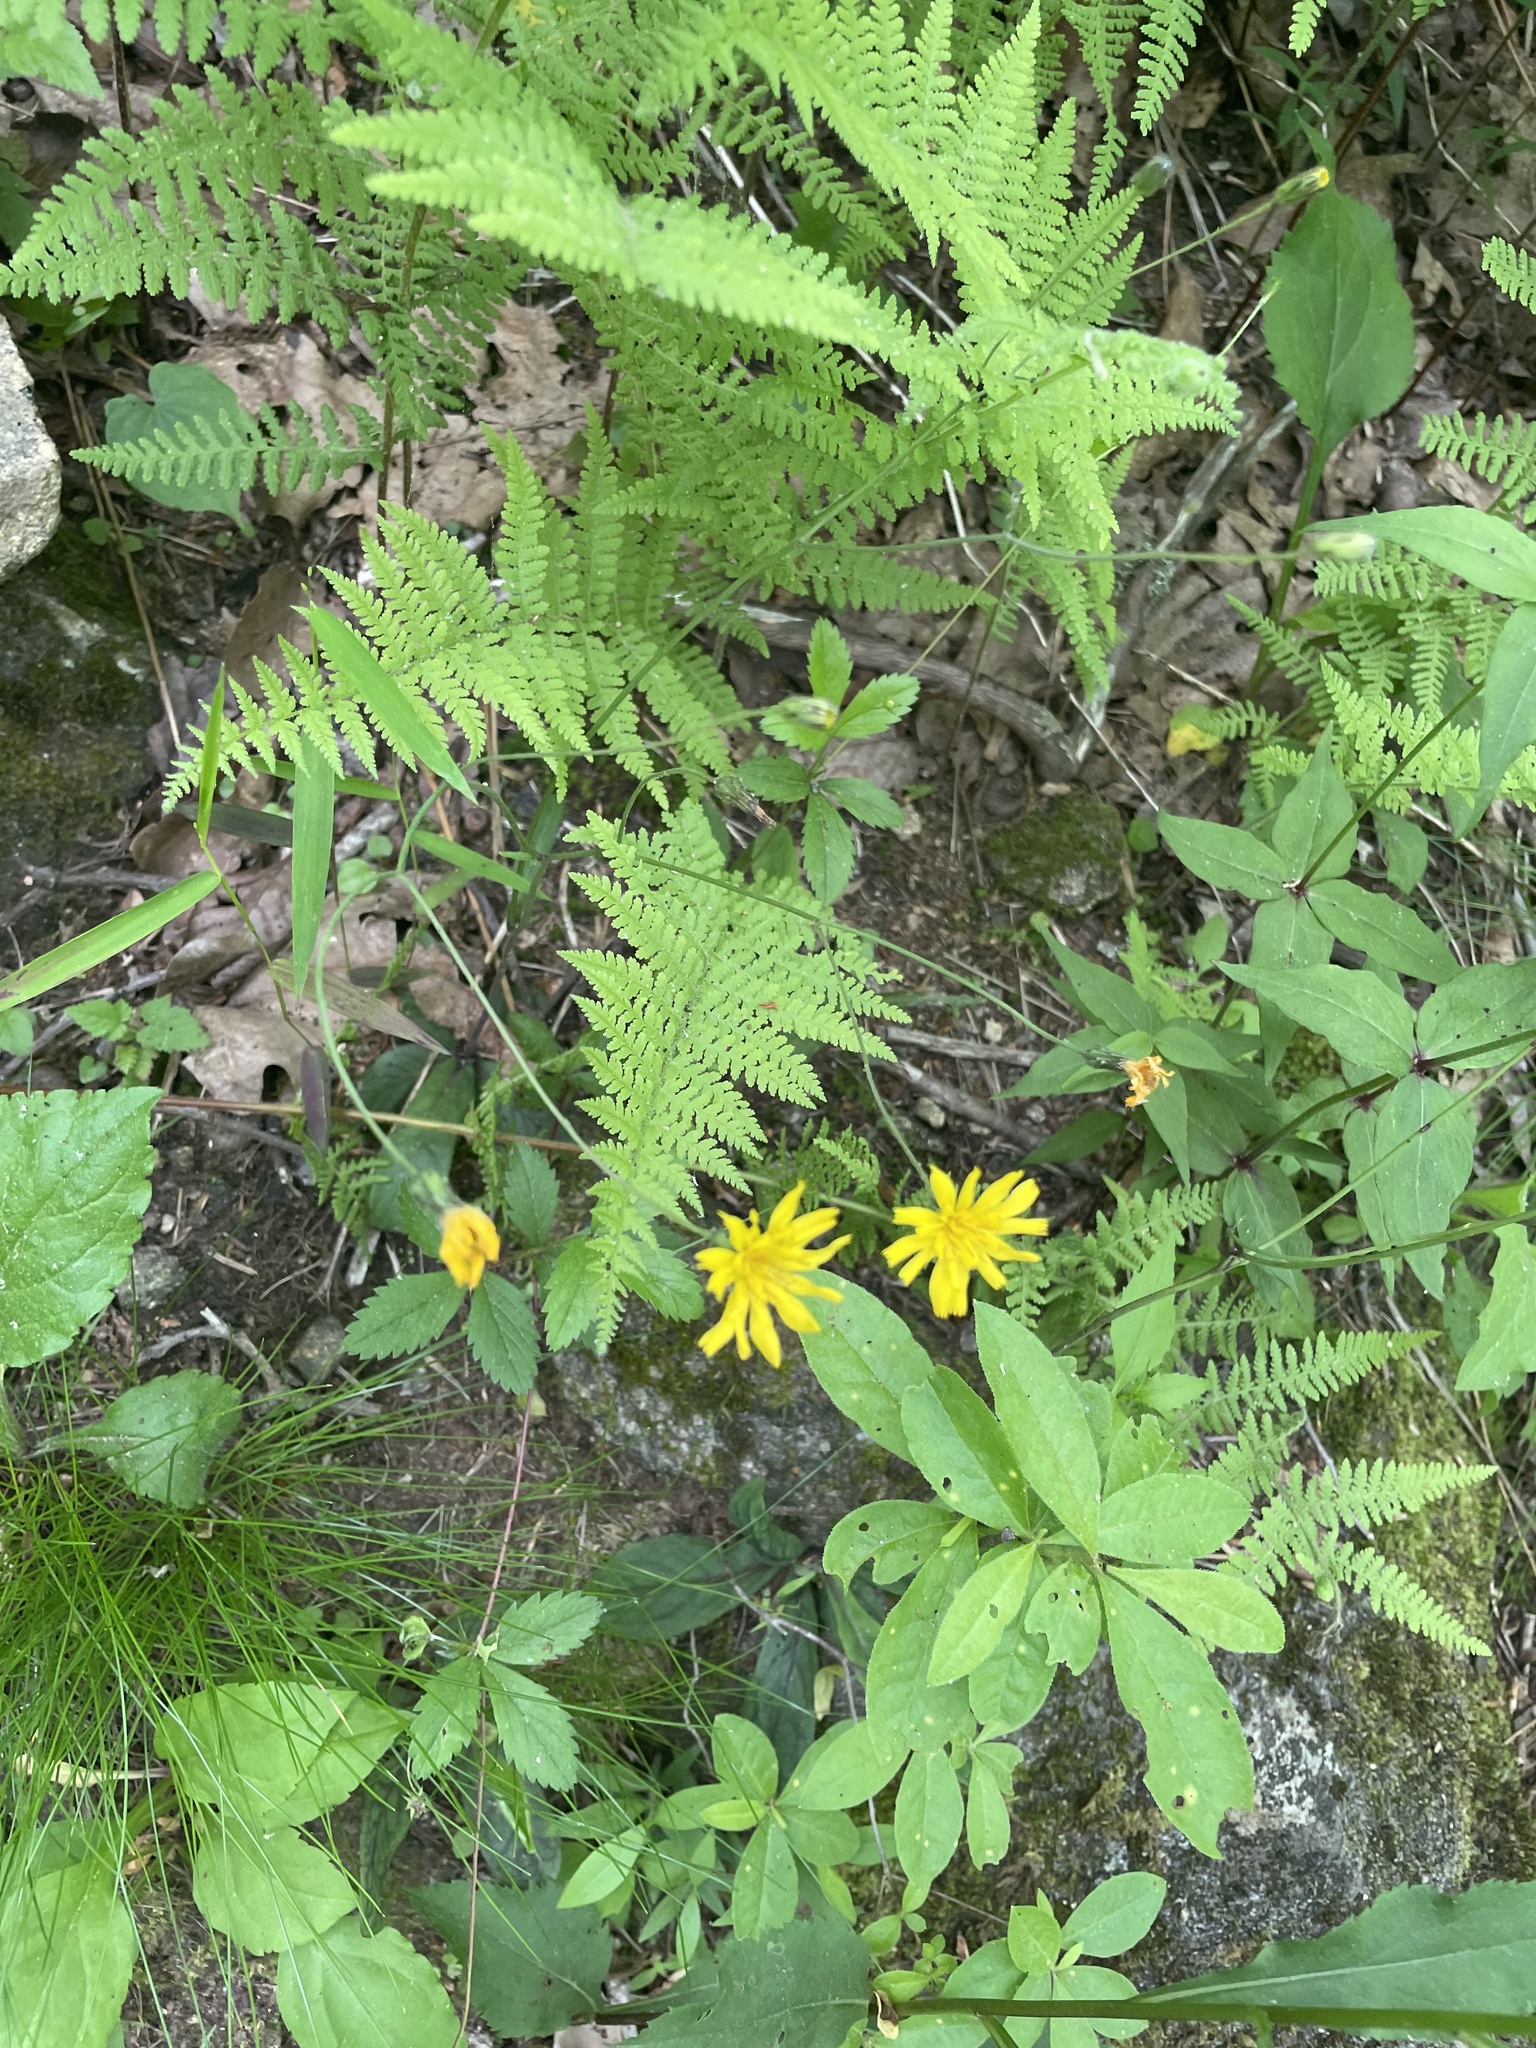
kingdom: Plantae
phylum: Tracheophyta
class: Magnoliopsida
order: Asterales
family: Asteraceae
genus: Hieracium
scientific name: Hieracium venosum
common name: Rattlesnake hawkweed
